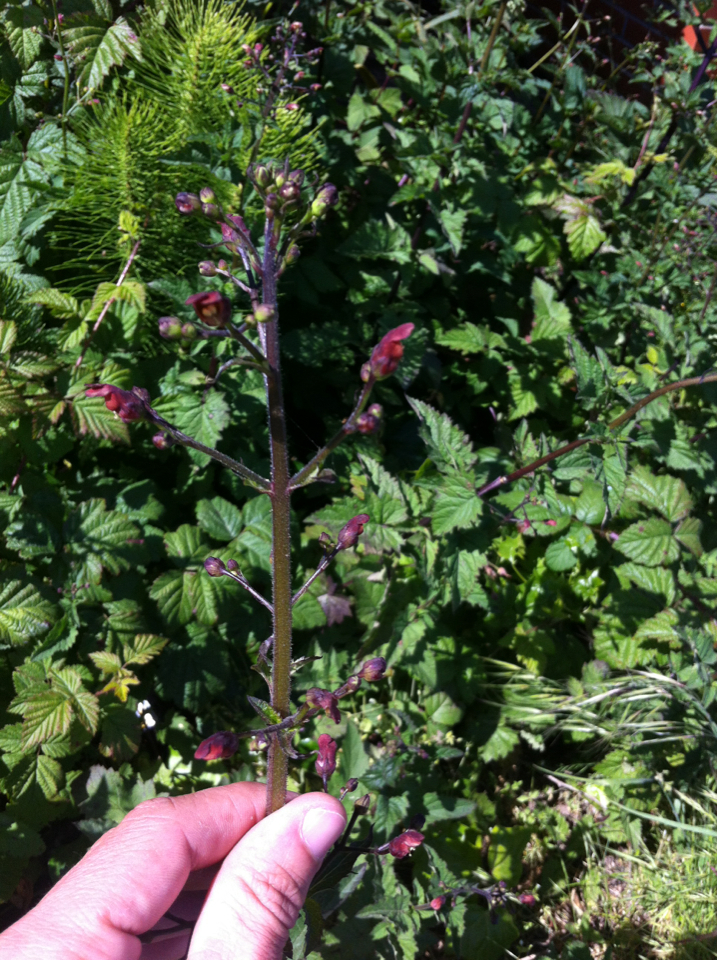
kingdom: Plantae
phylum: Tracheophyta
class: Magnoliopsida
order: Lamiales
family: Scrophulariaceae
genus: Scrophularia
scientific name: Scrophularia californica
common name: California figwort
